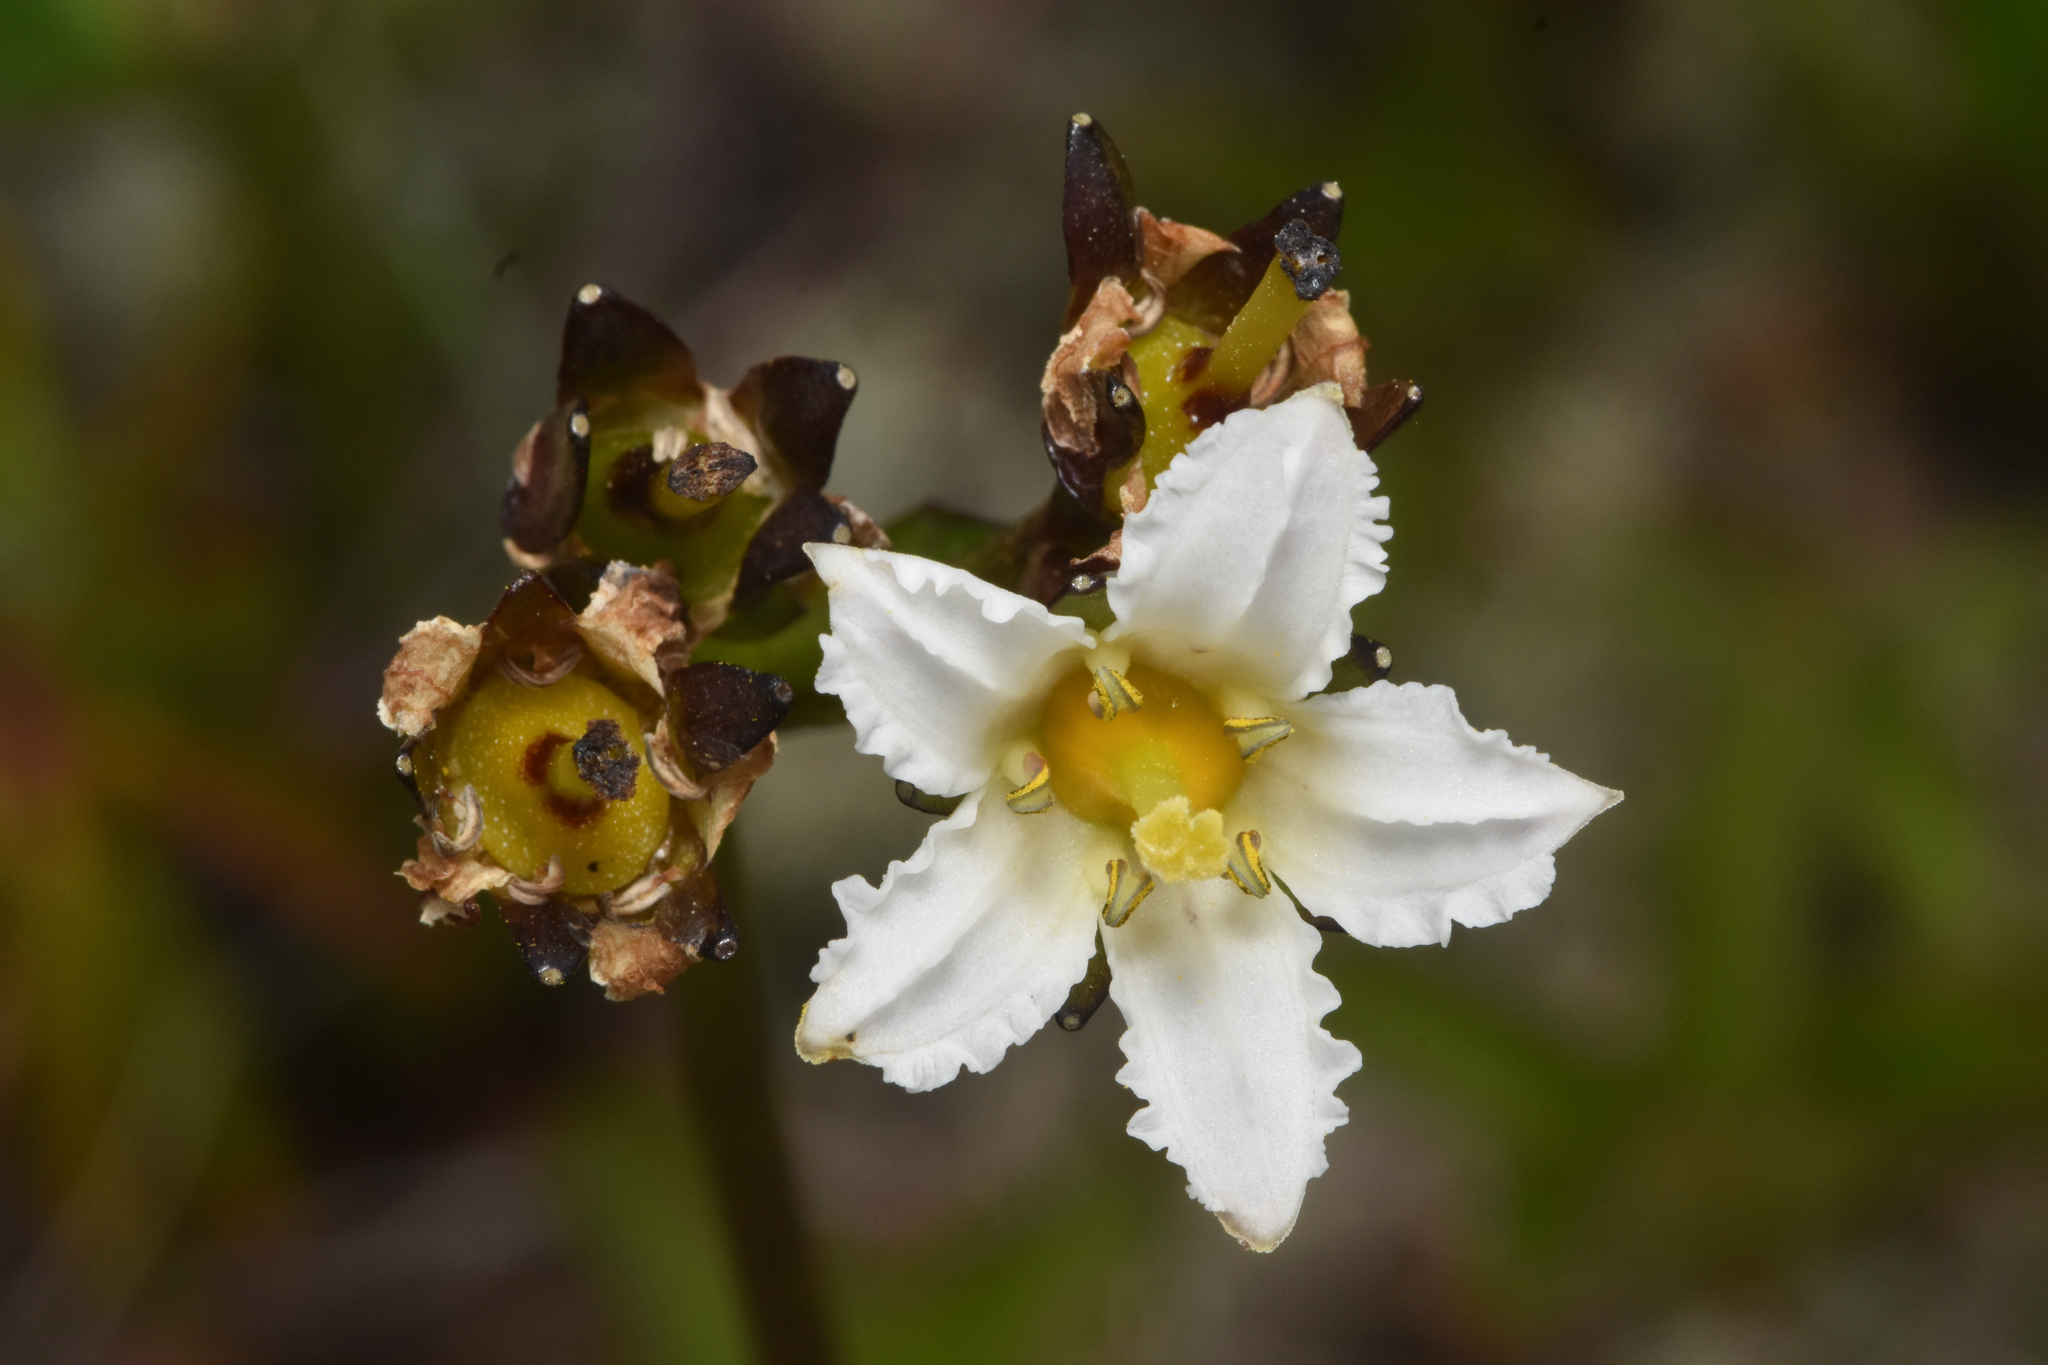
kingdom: Plantae
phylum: Tracheophyta
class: Magnoliopsida
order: Asterales
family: Menyanthaceae
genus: Nephrophyllidium
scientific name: Nephrophyllidium crista-galli
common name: Deer-cabbage
